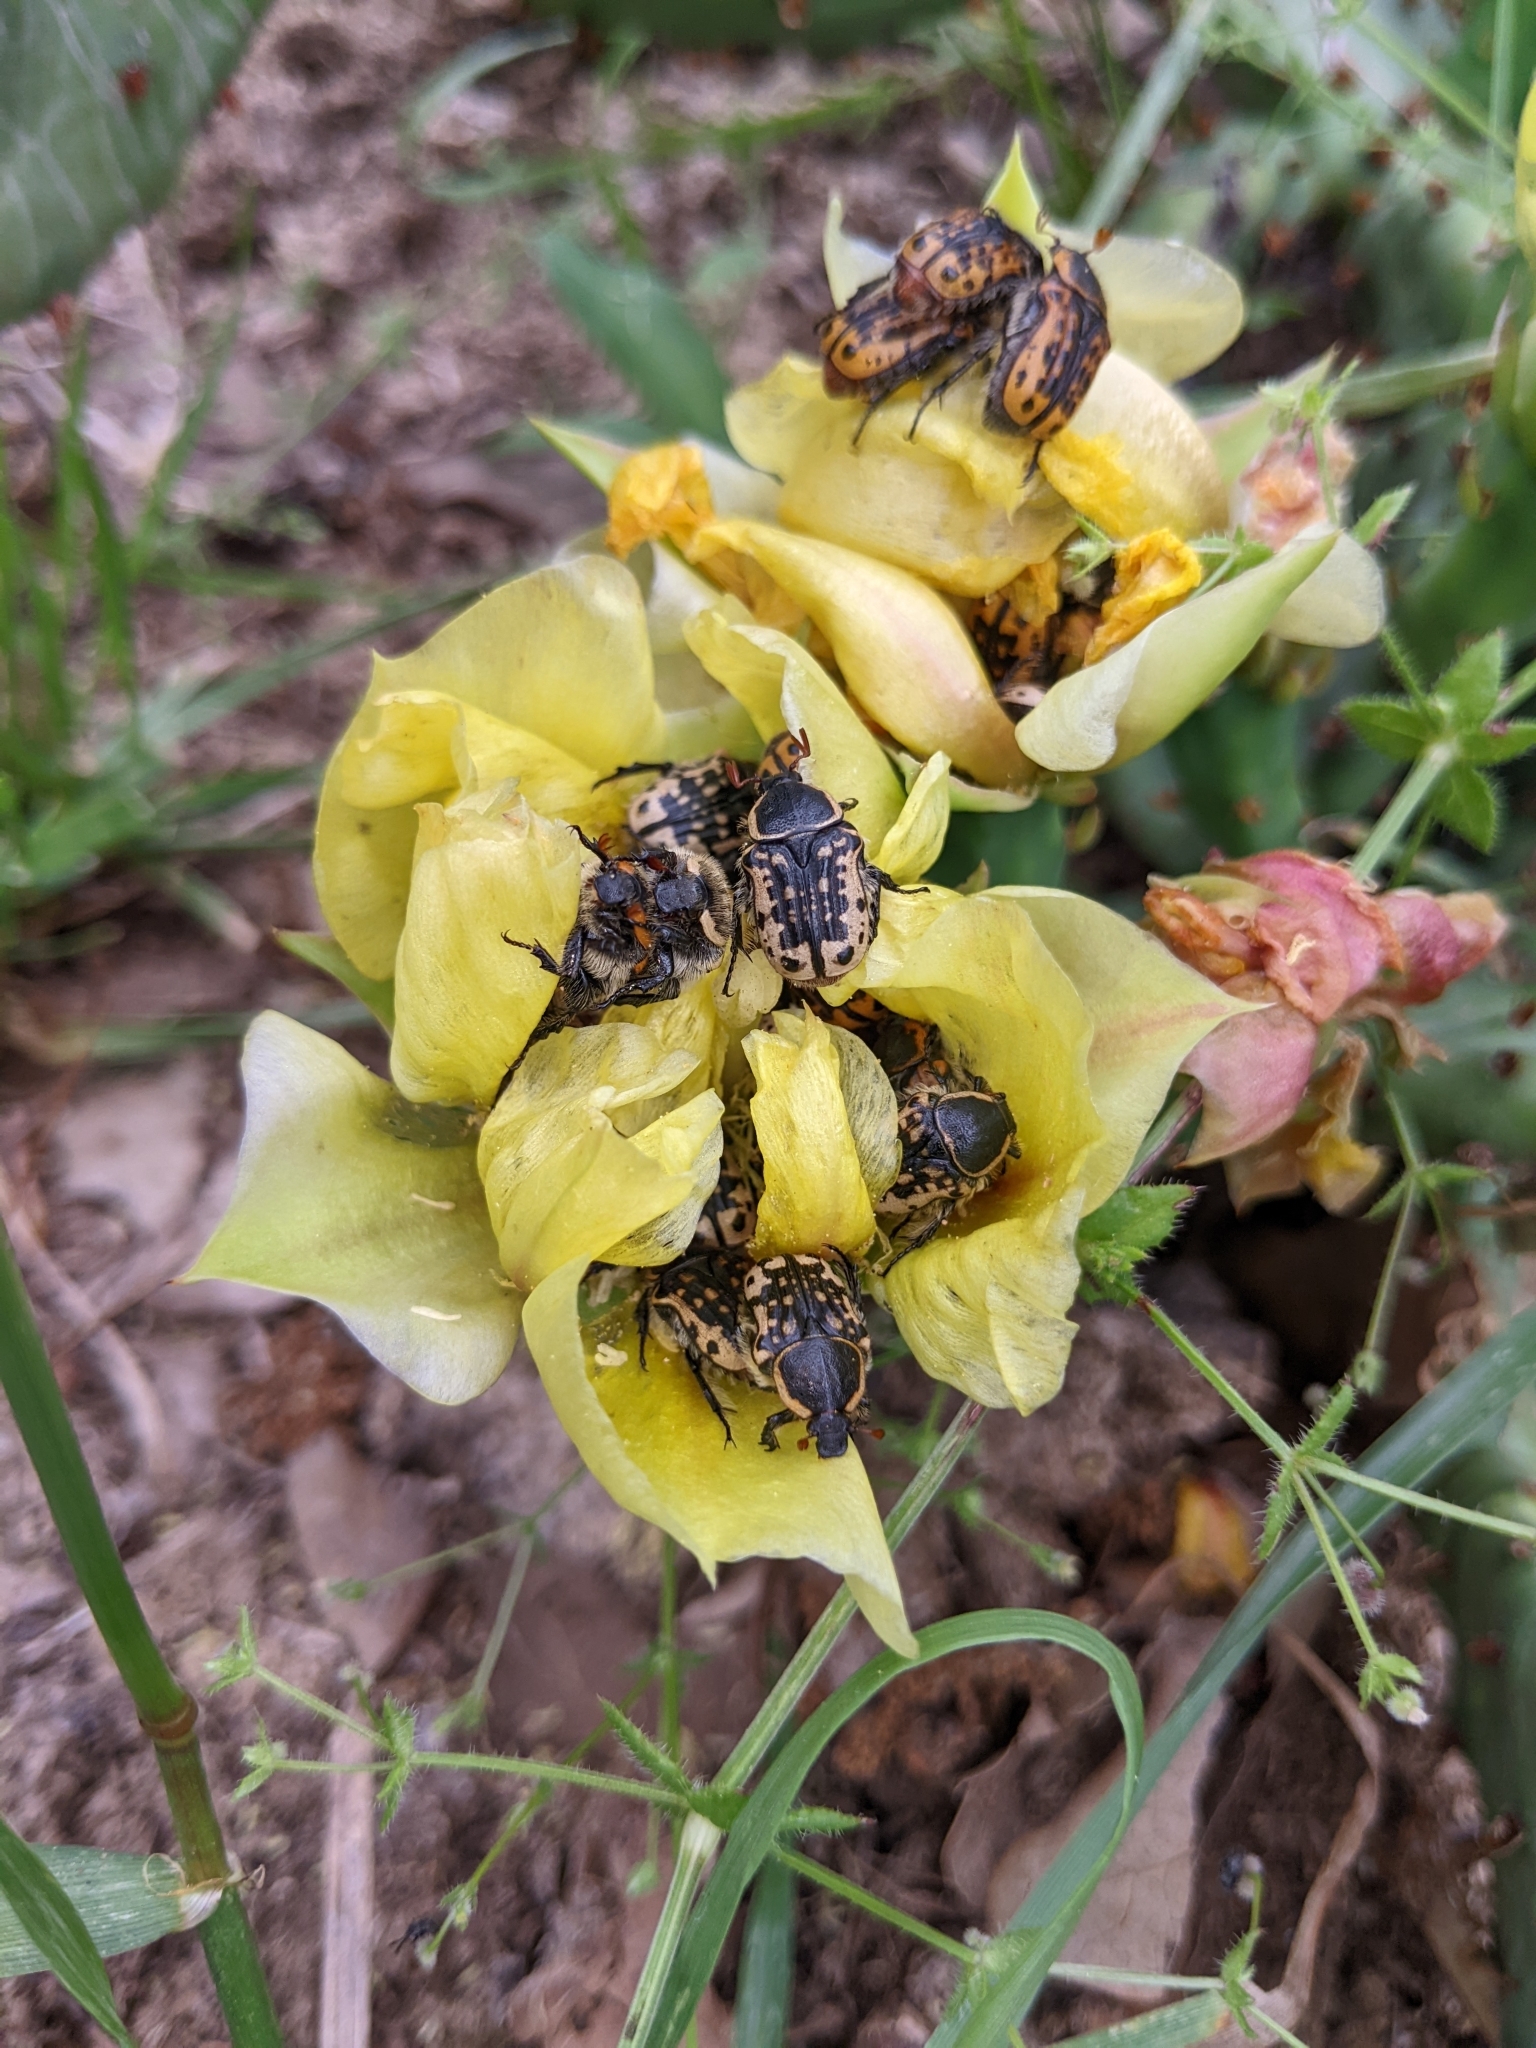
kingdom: Animalia
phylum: Arthropoda
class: Insecta
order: Coleoptera
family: Scarabaeidae
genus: Euphoria
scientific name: Euphoria kernii
